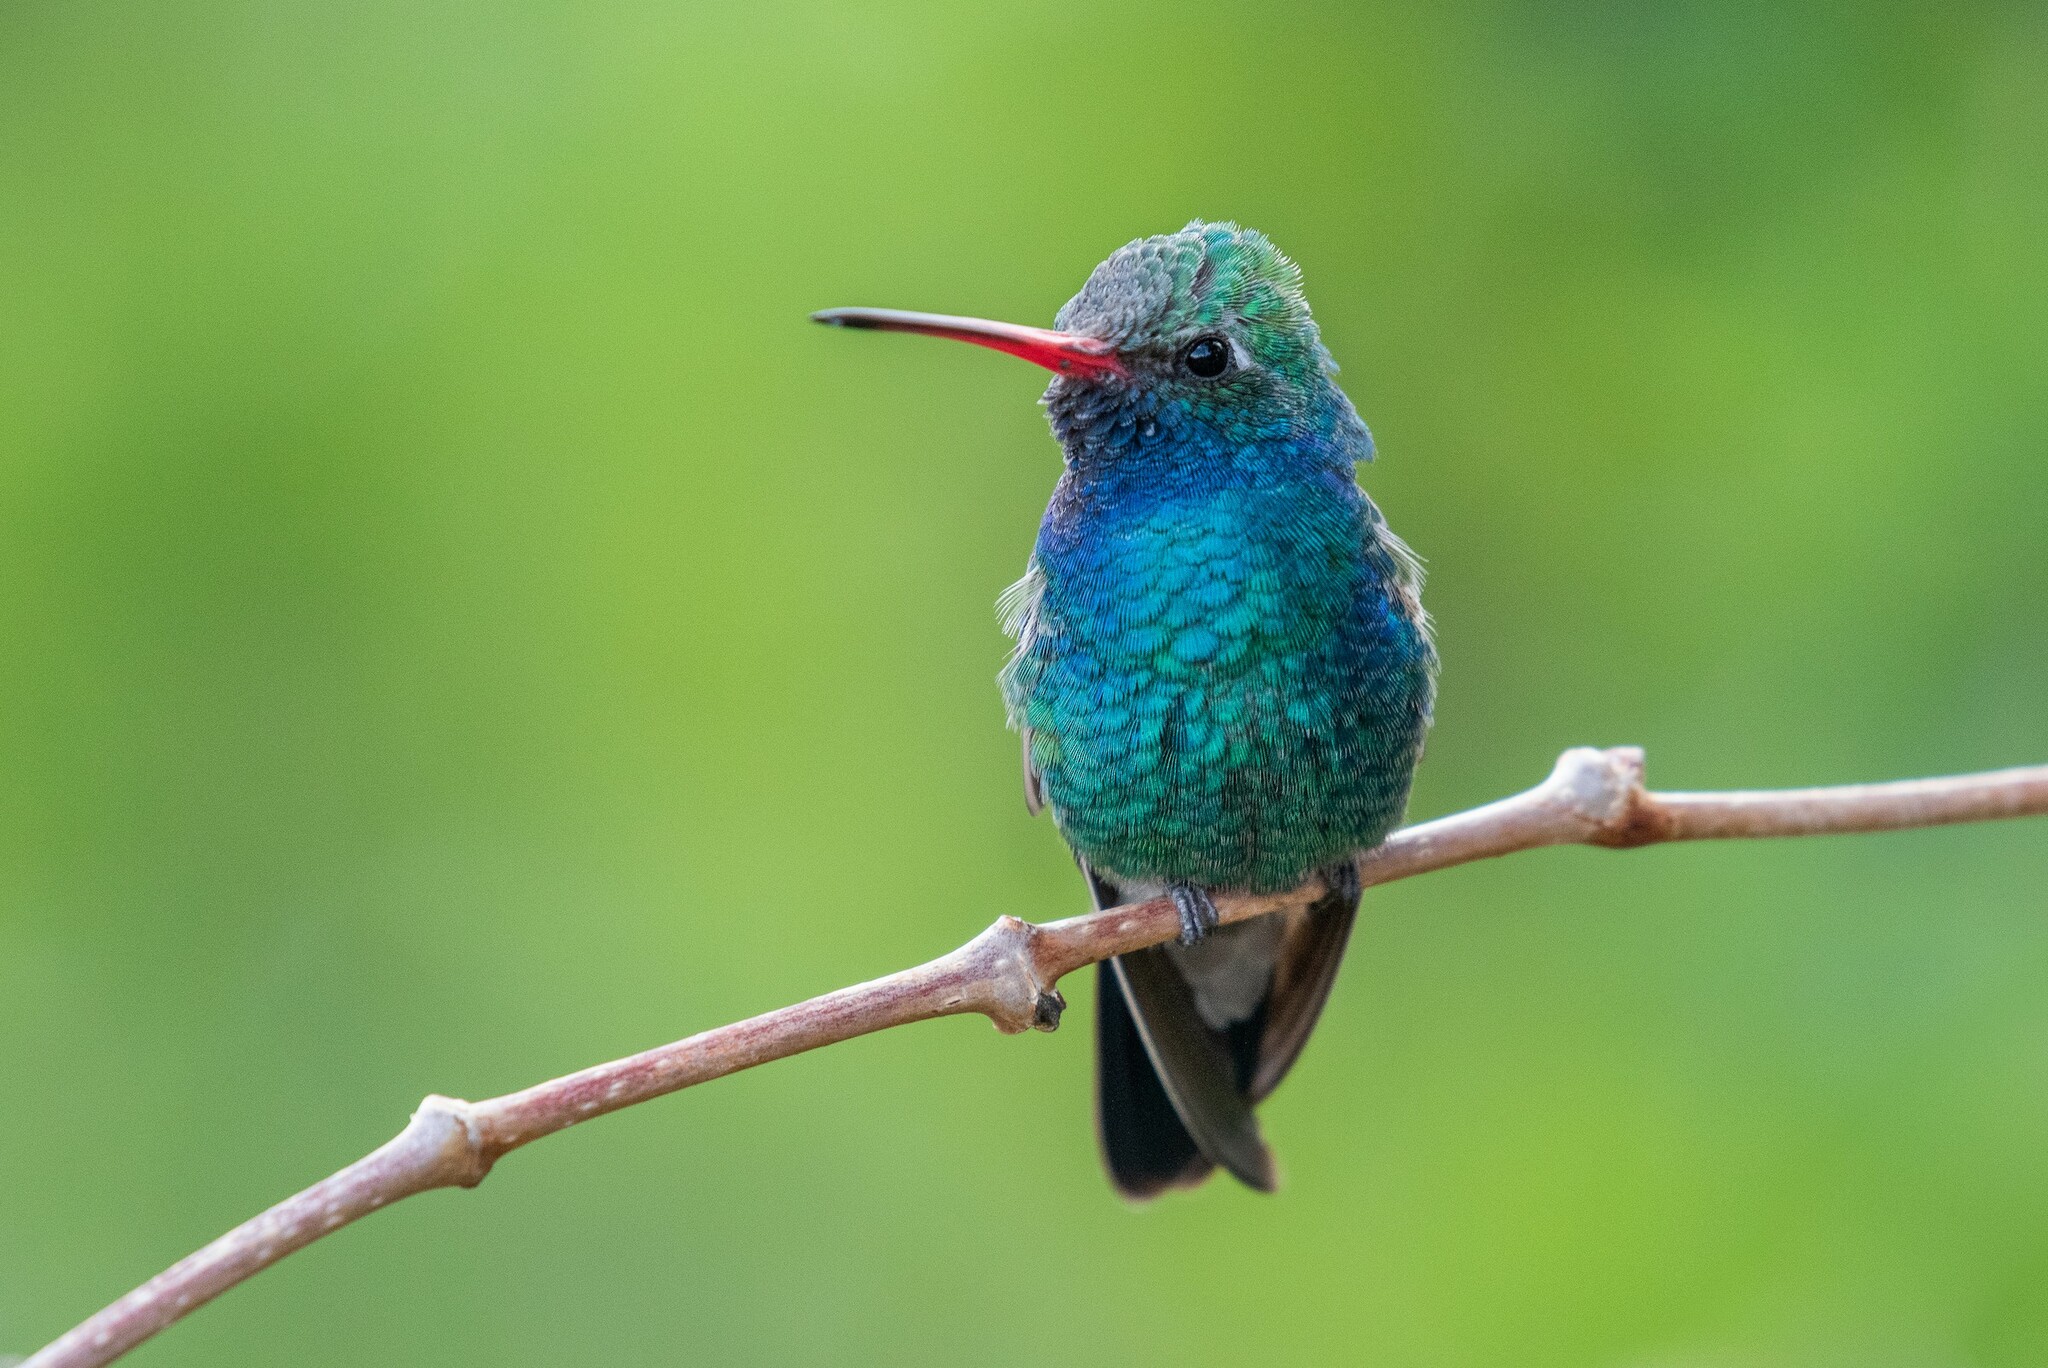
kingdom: Animalia
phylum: Chordata
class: Aves
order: Apodiformes
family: Trochilidae
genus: Cynanthus
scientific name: Cynanthus latirostris
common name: Broad-billed hummingbird
